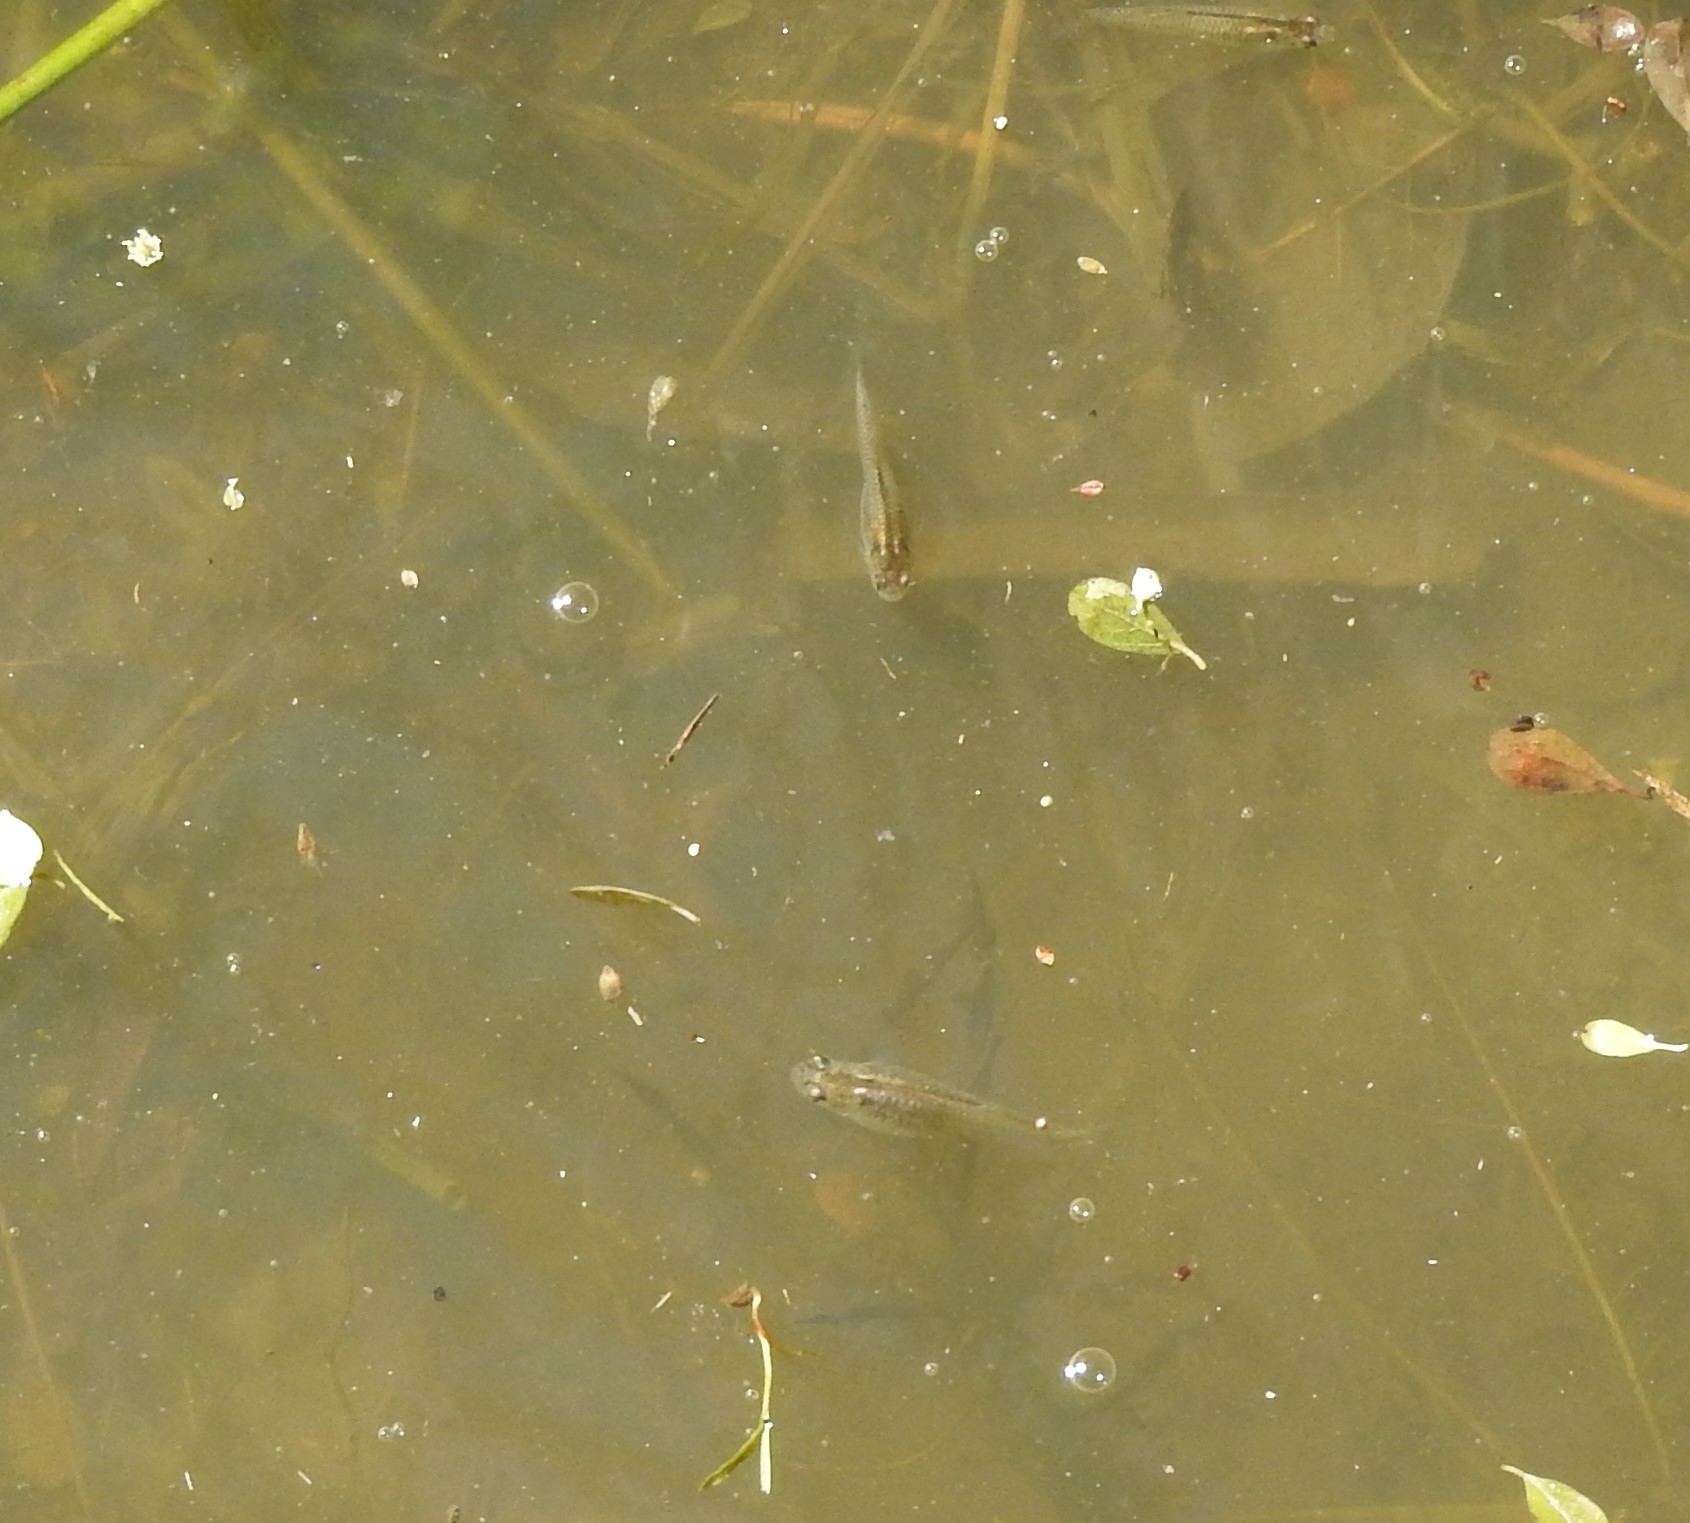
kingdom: Animalia
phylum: Chordata
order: Cyprinodontiformes
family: Poeciliidae
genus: Gambusia
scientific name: Gambusia affinis
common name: Mosquitofish
